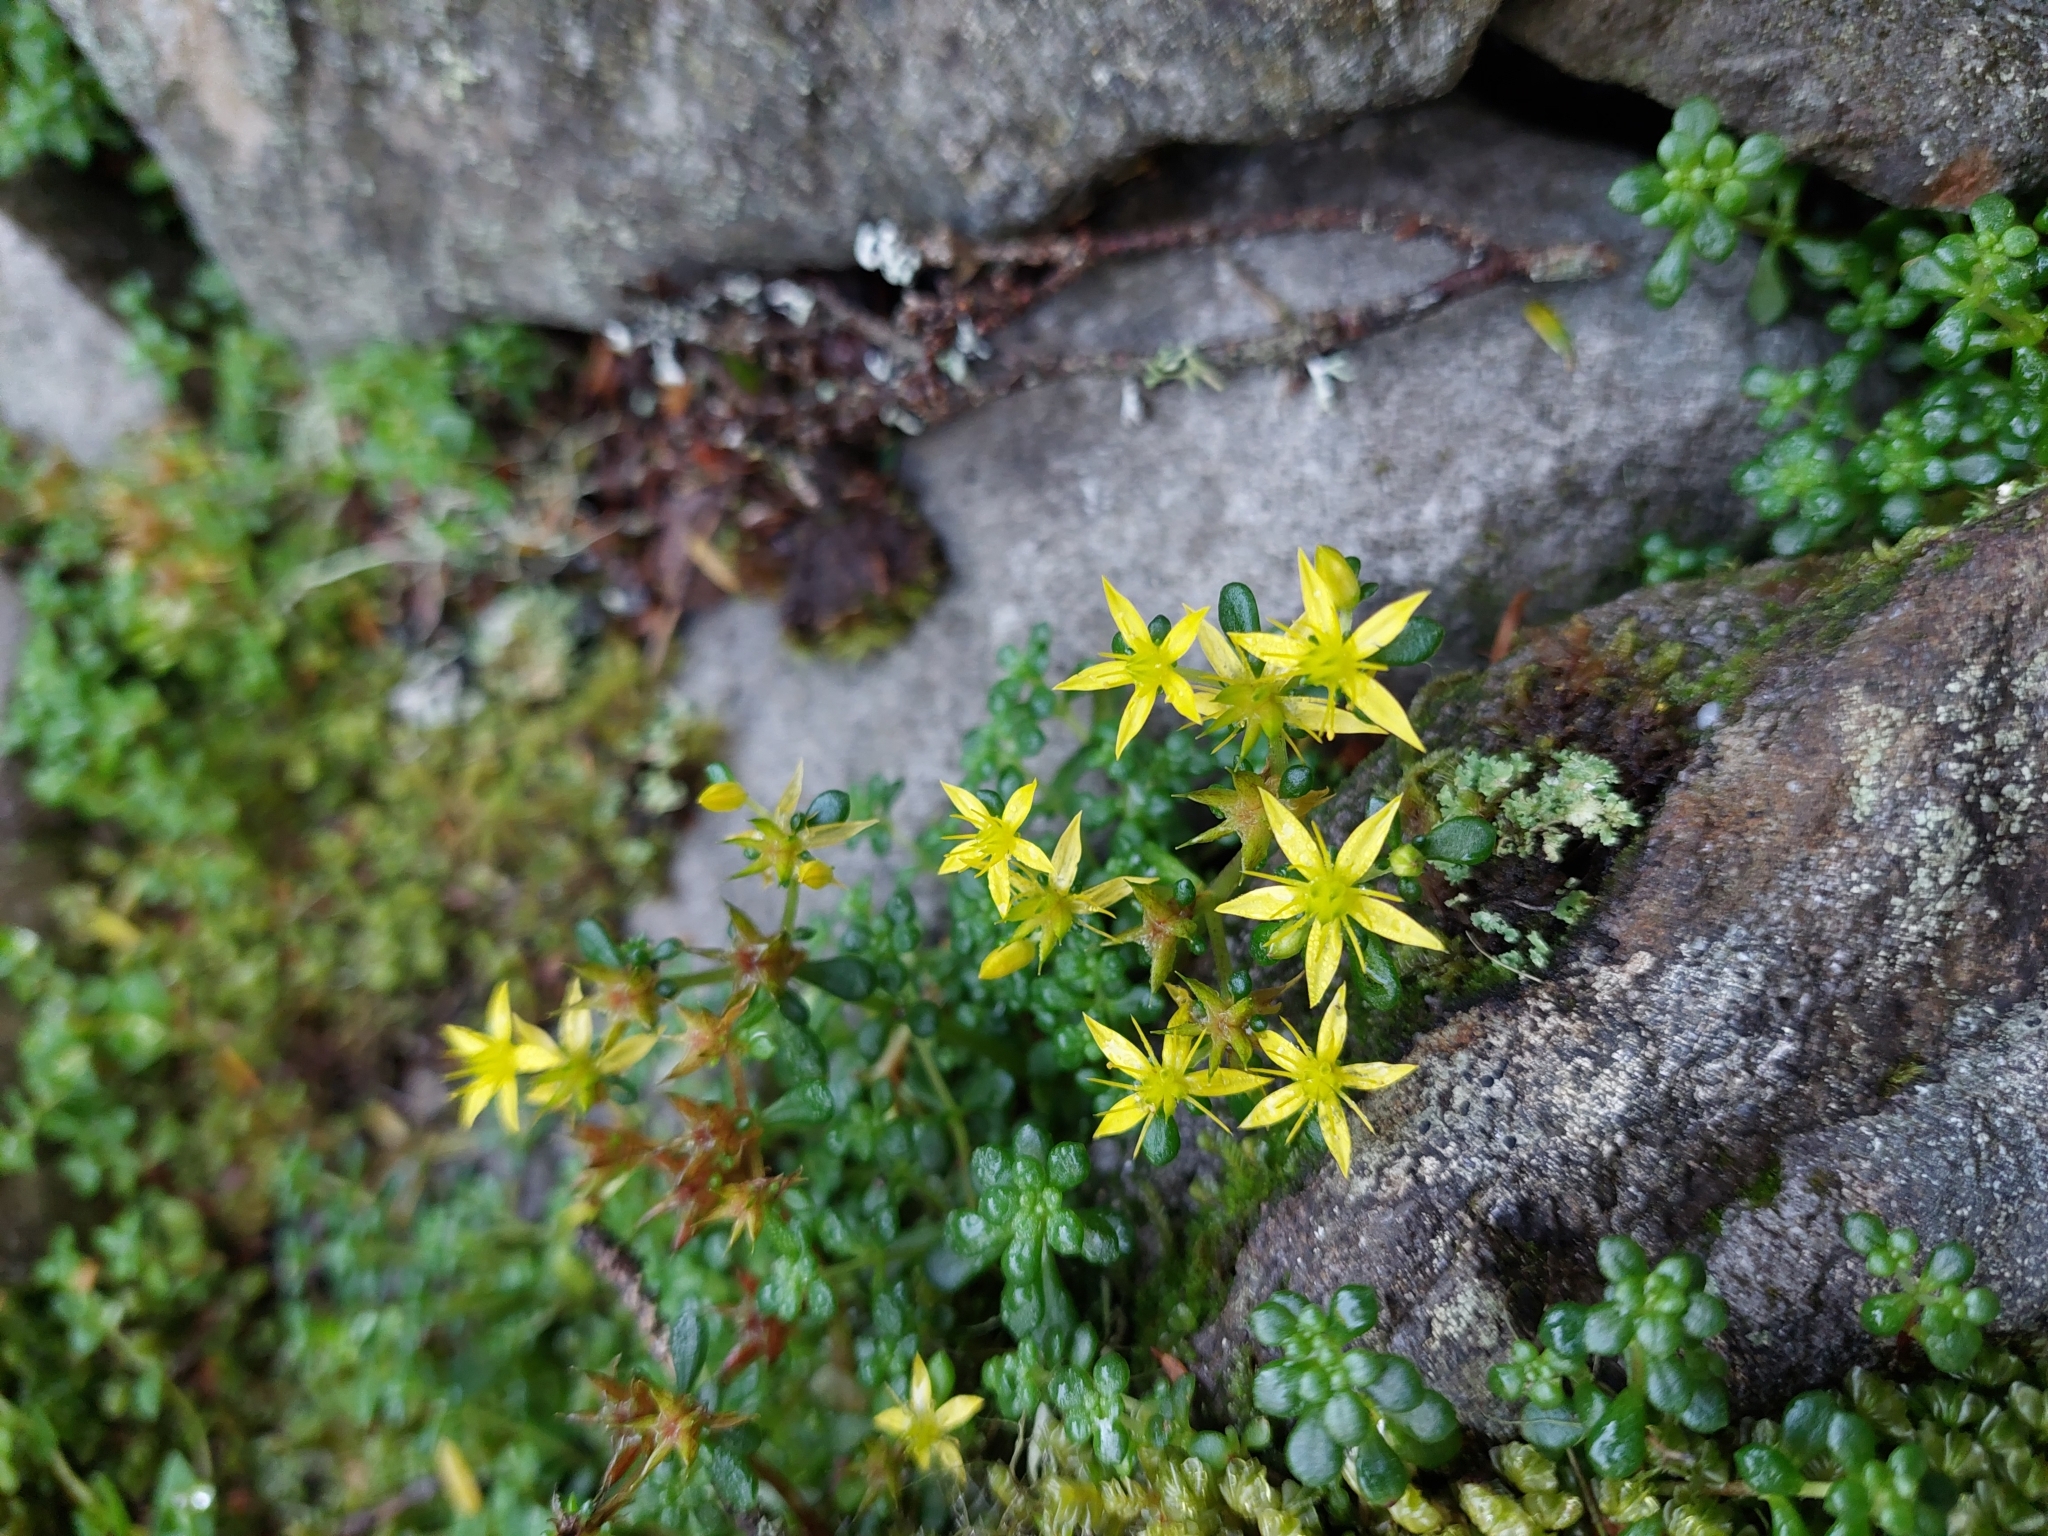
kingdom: Plantae
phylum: Tracheophyta
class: Magnoliopsida
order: Saxifragales
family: Crassulaceae
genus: Sedum
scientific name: Sedum erythrospermum
